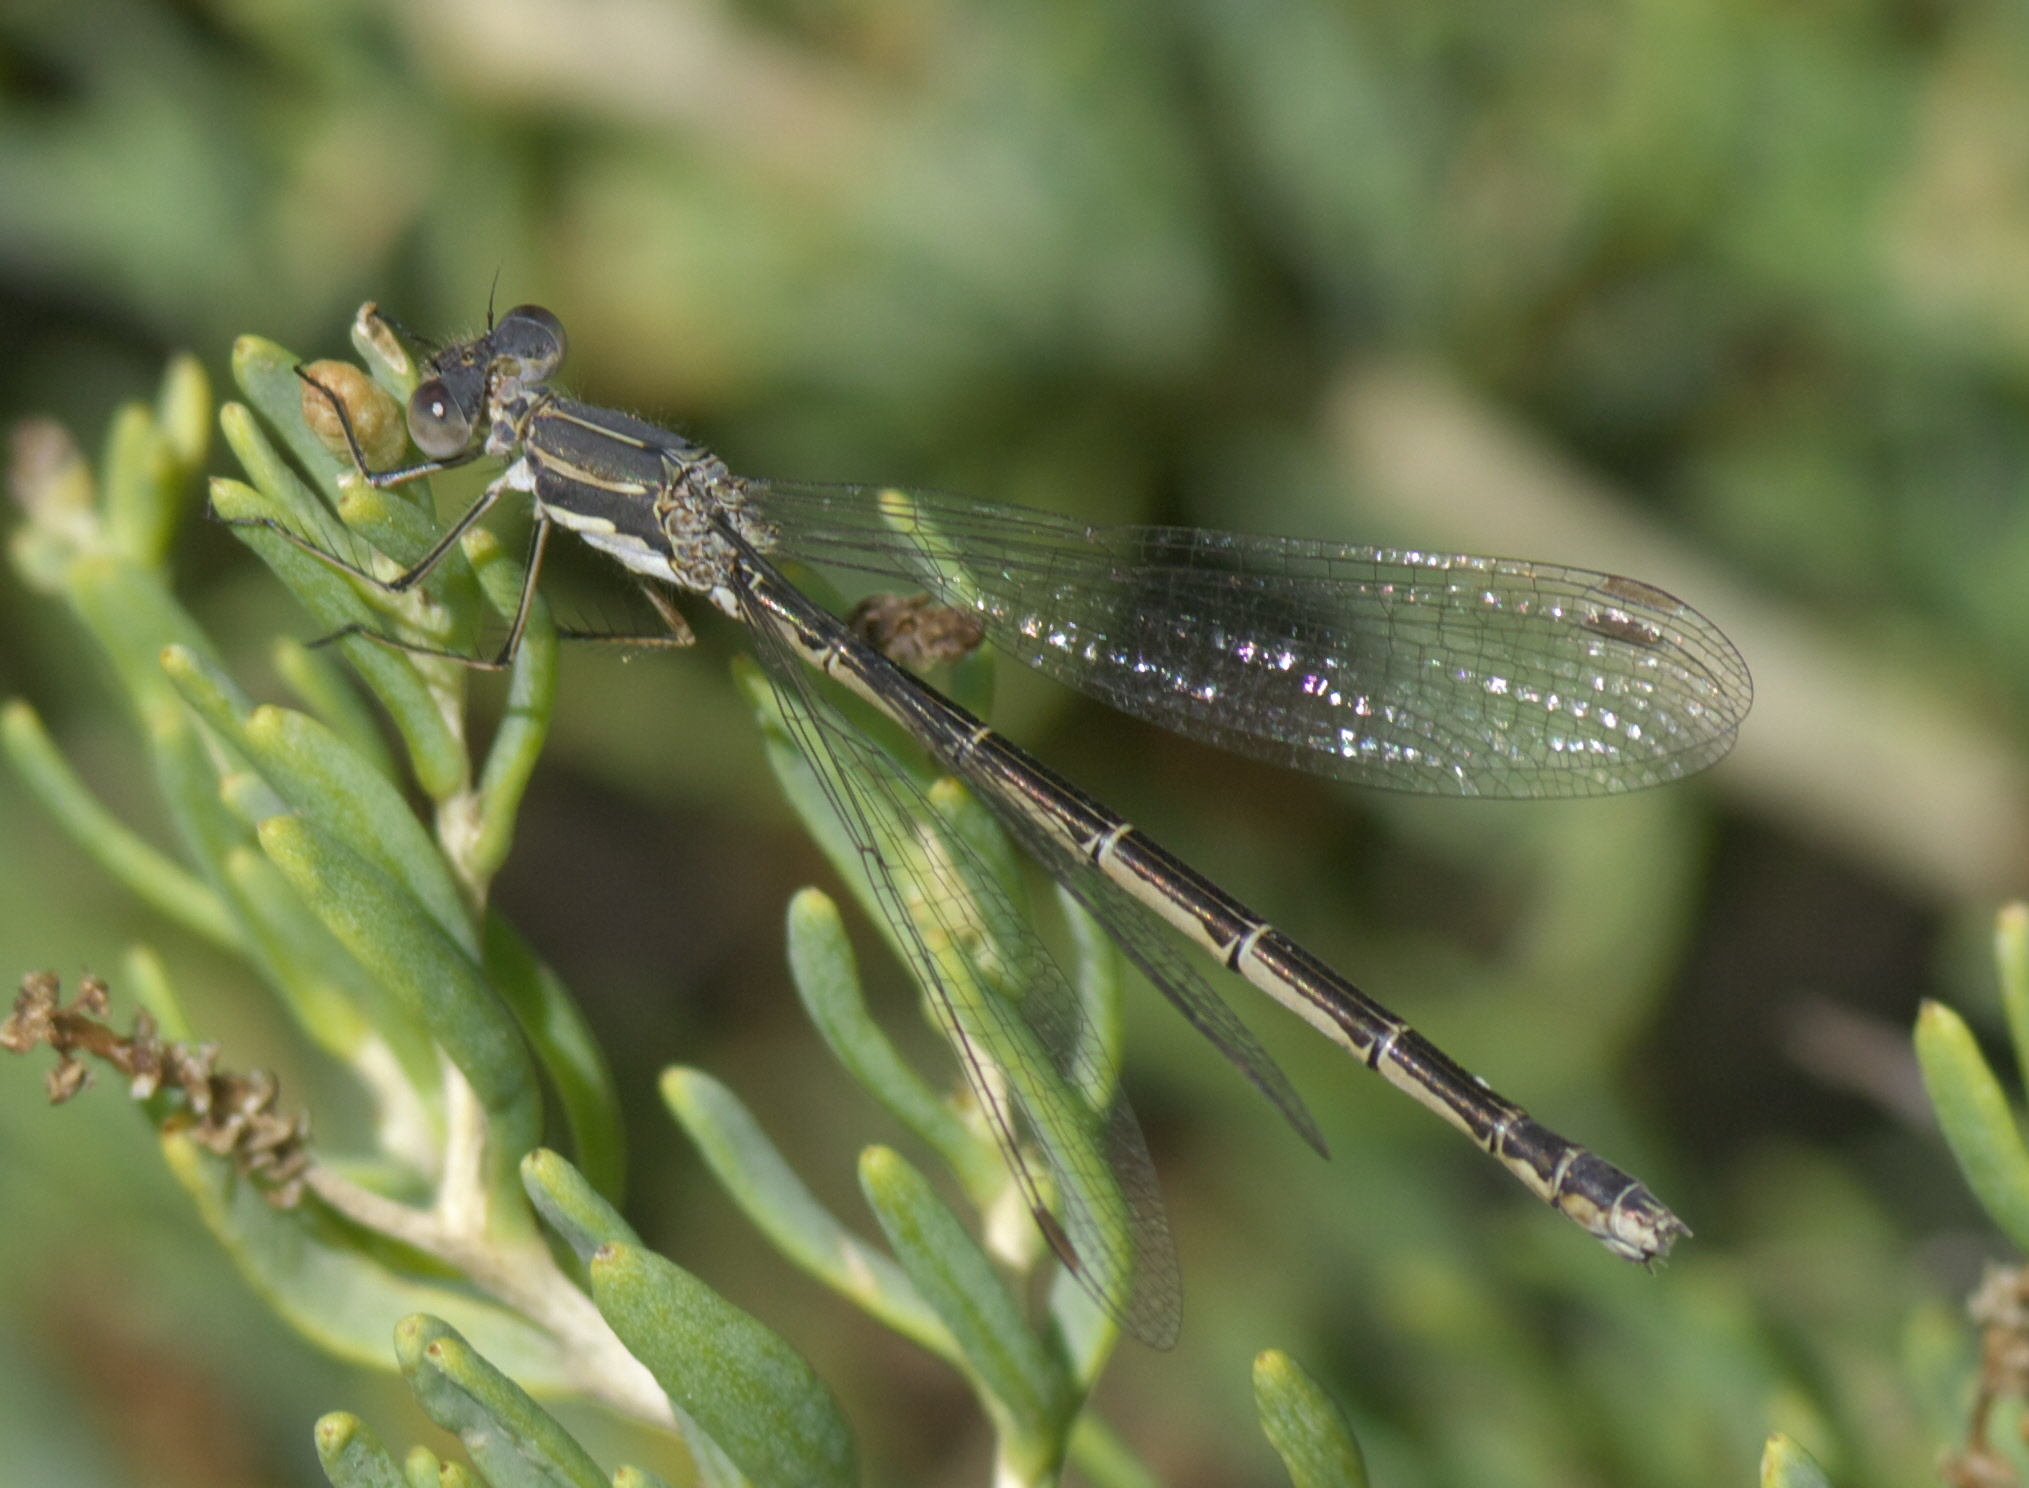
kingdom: Animalia
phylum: Arthropoda
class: Insecta
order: Odonata
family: Lestidae
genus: Lestes
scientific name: Lestes congener
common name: Spotted spreadwing
